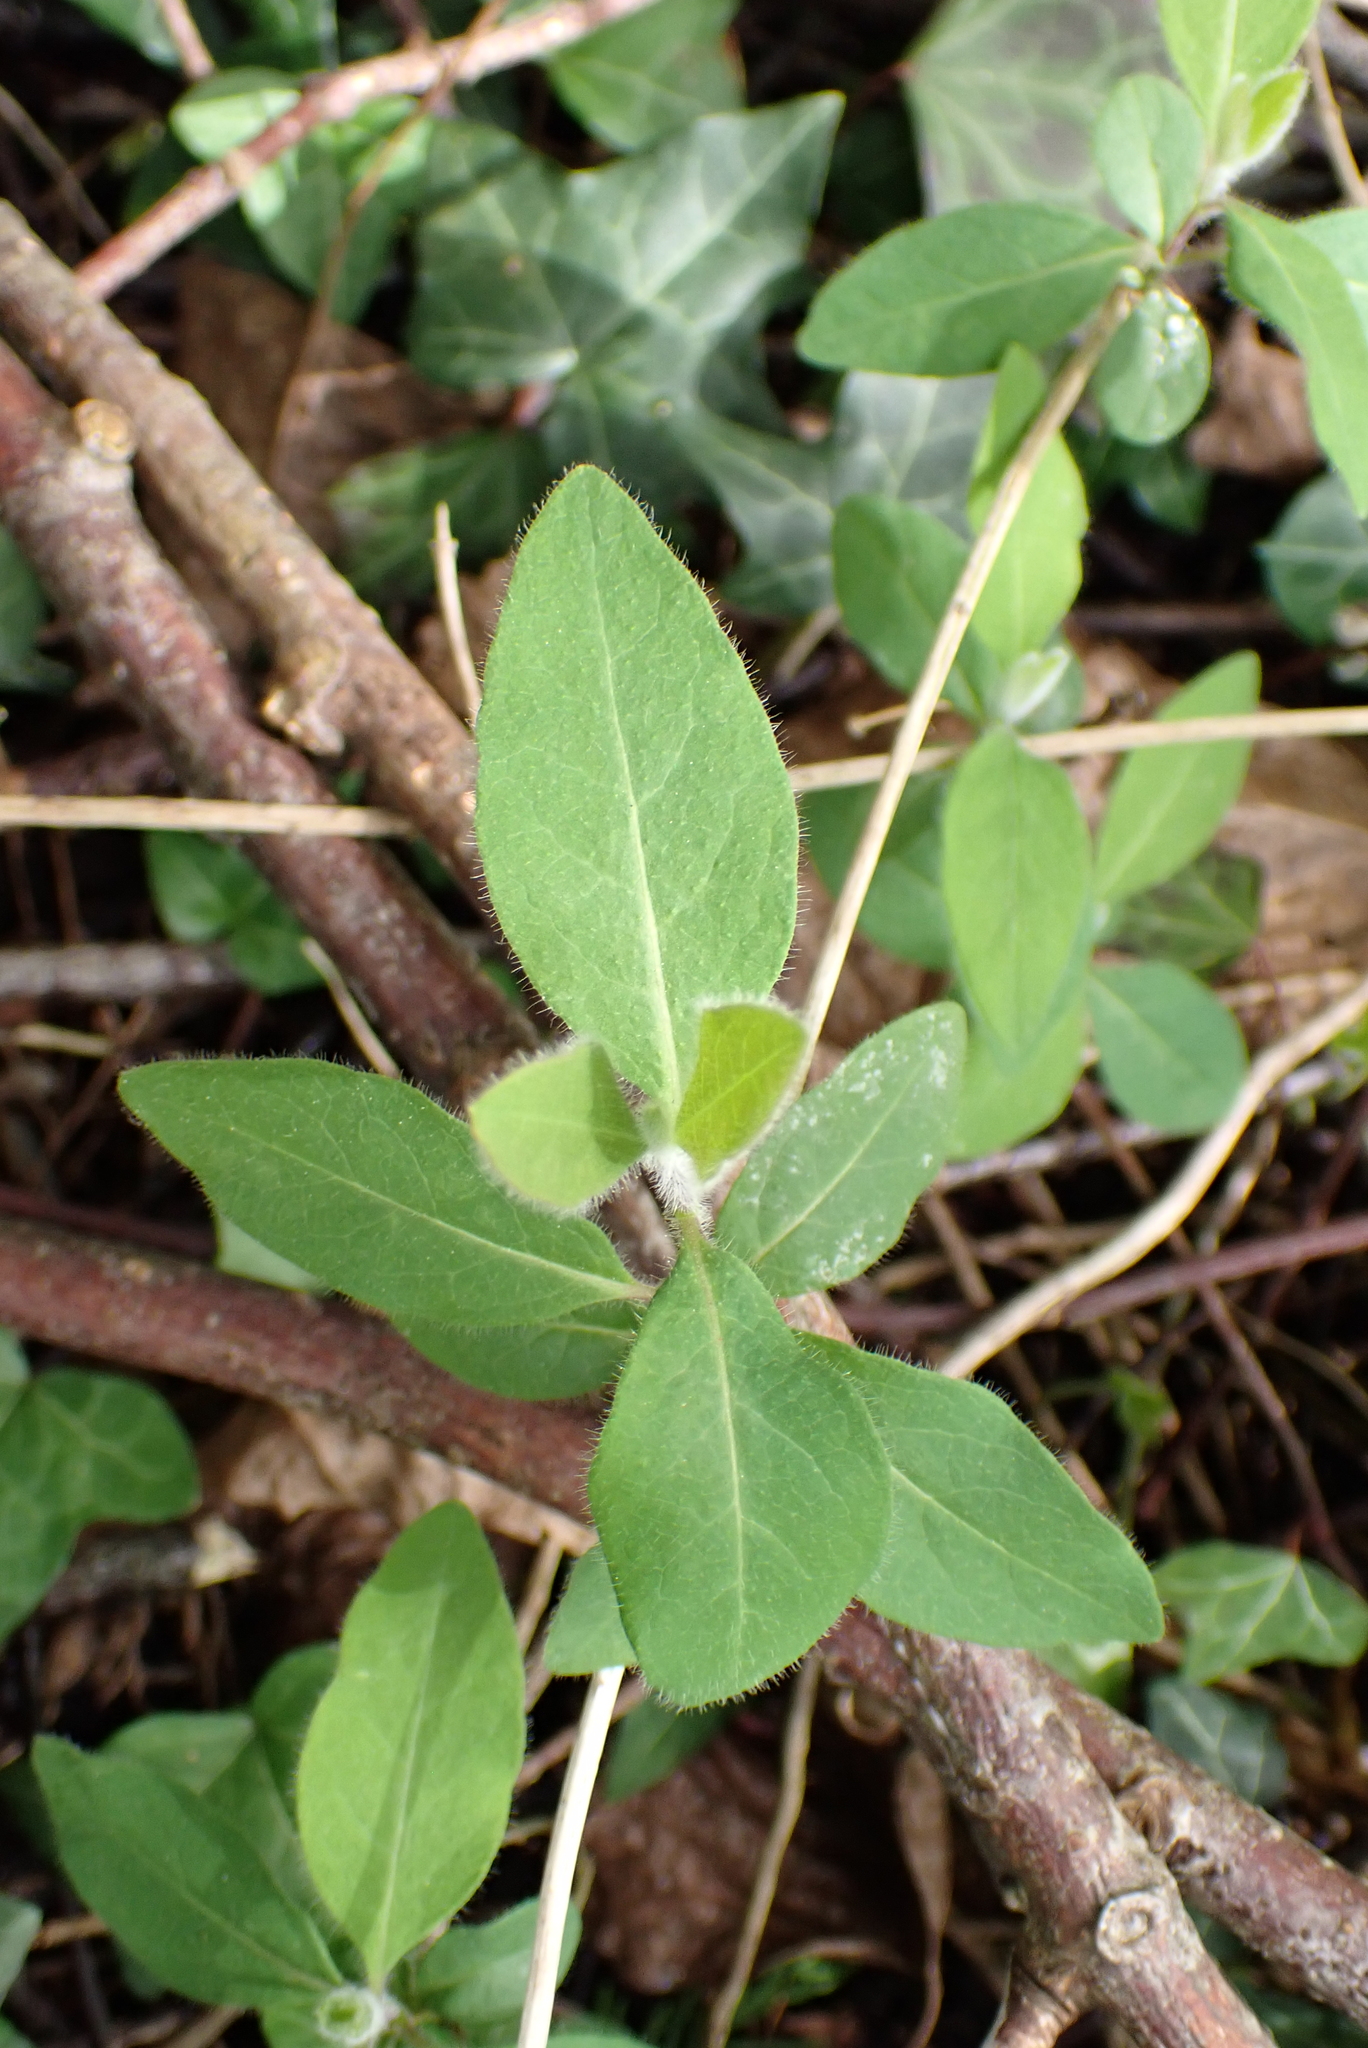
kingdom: Plantae
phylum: Tracheophyta
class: Magnoliopsida
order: Dipsacales
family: Caprifoliaceae
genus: Lonicera
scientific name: Lonicera periclymenum
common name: European honeysuckle
